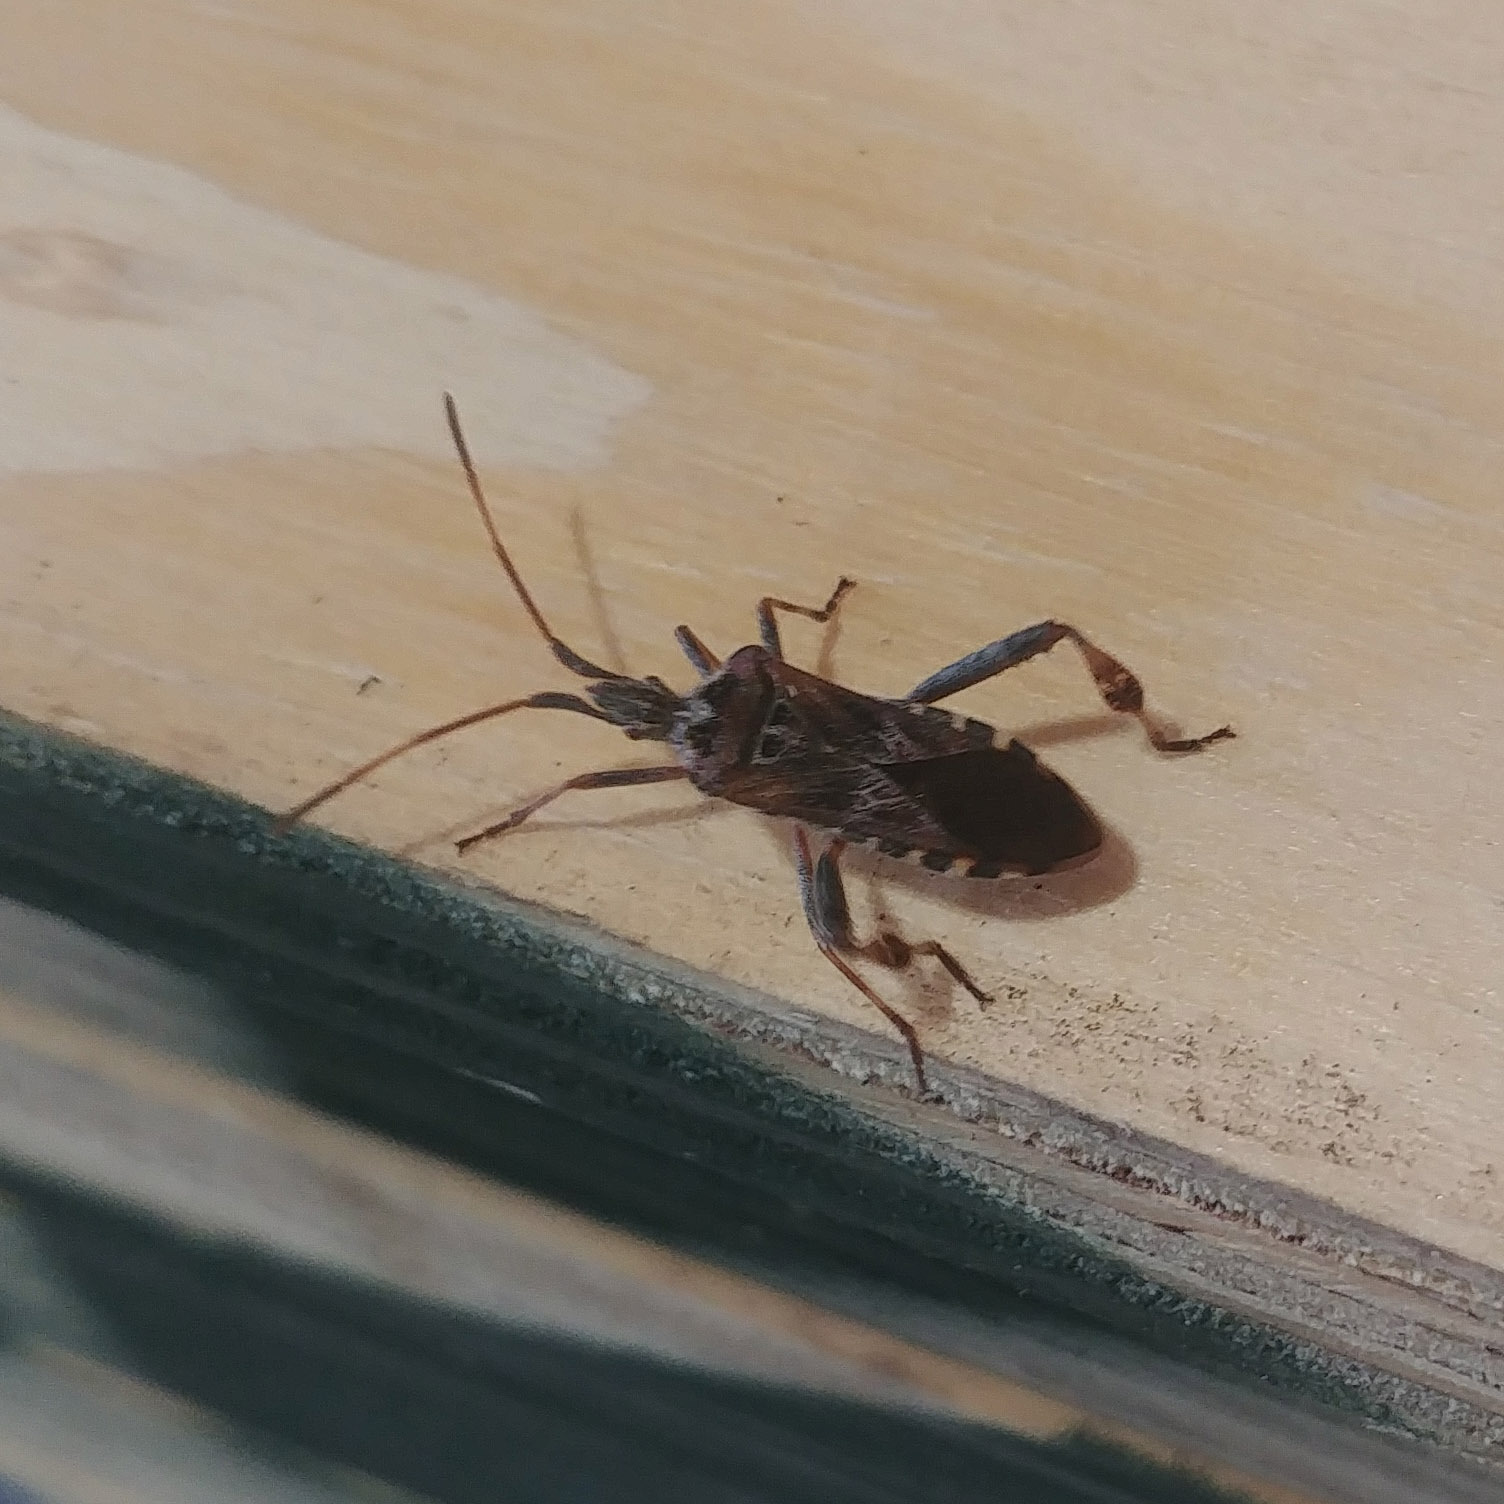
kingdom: Animalia
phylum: Arthropoda
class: Insecta
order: Hemiptera
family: Coreidae
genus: Leptoglossus
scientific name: Leptoglossus occidentalis
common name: Western conifer-seed bug
